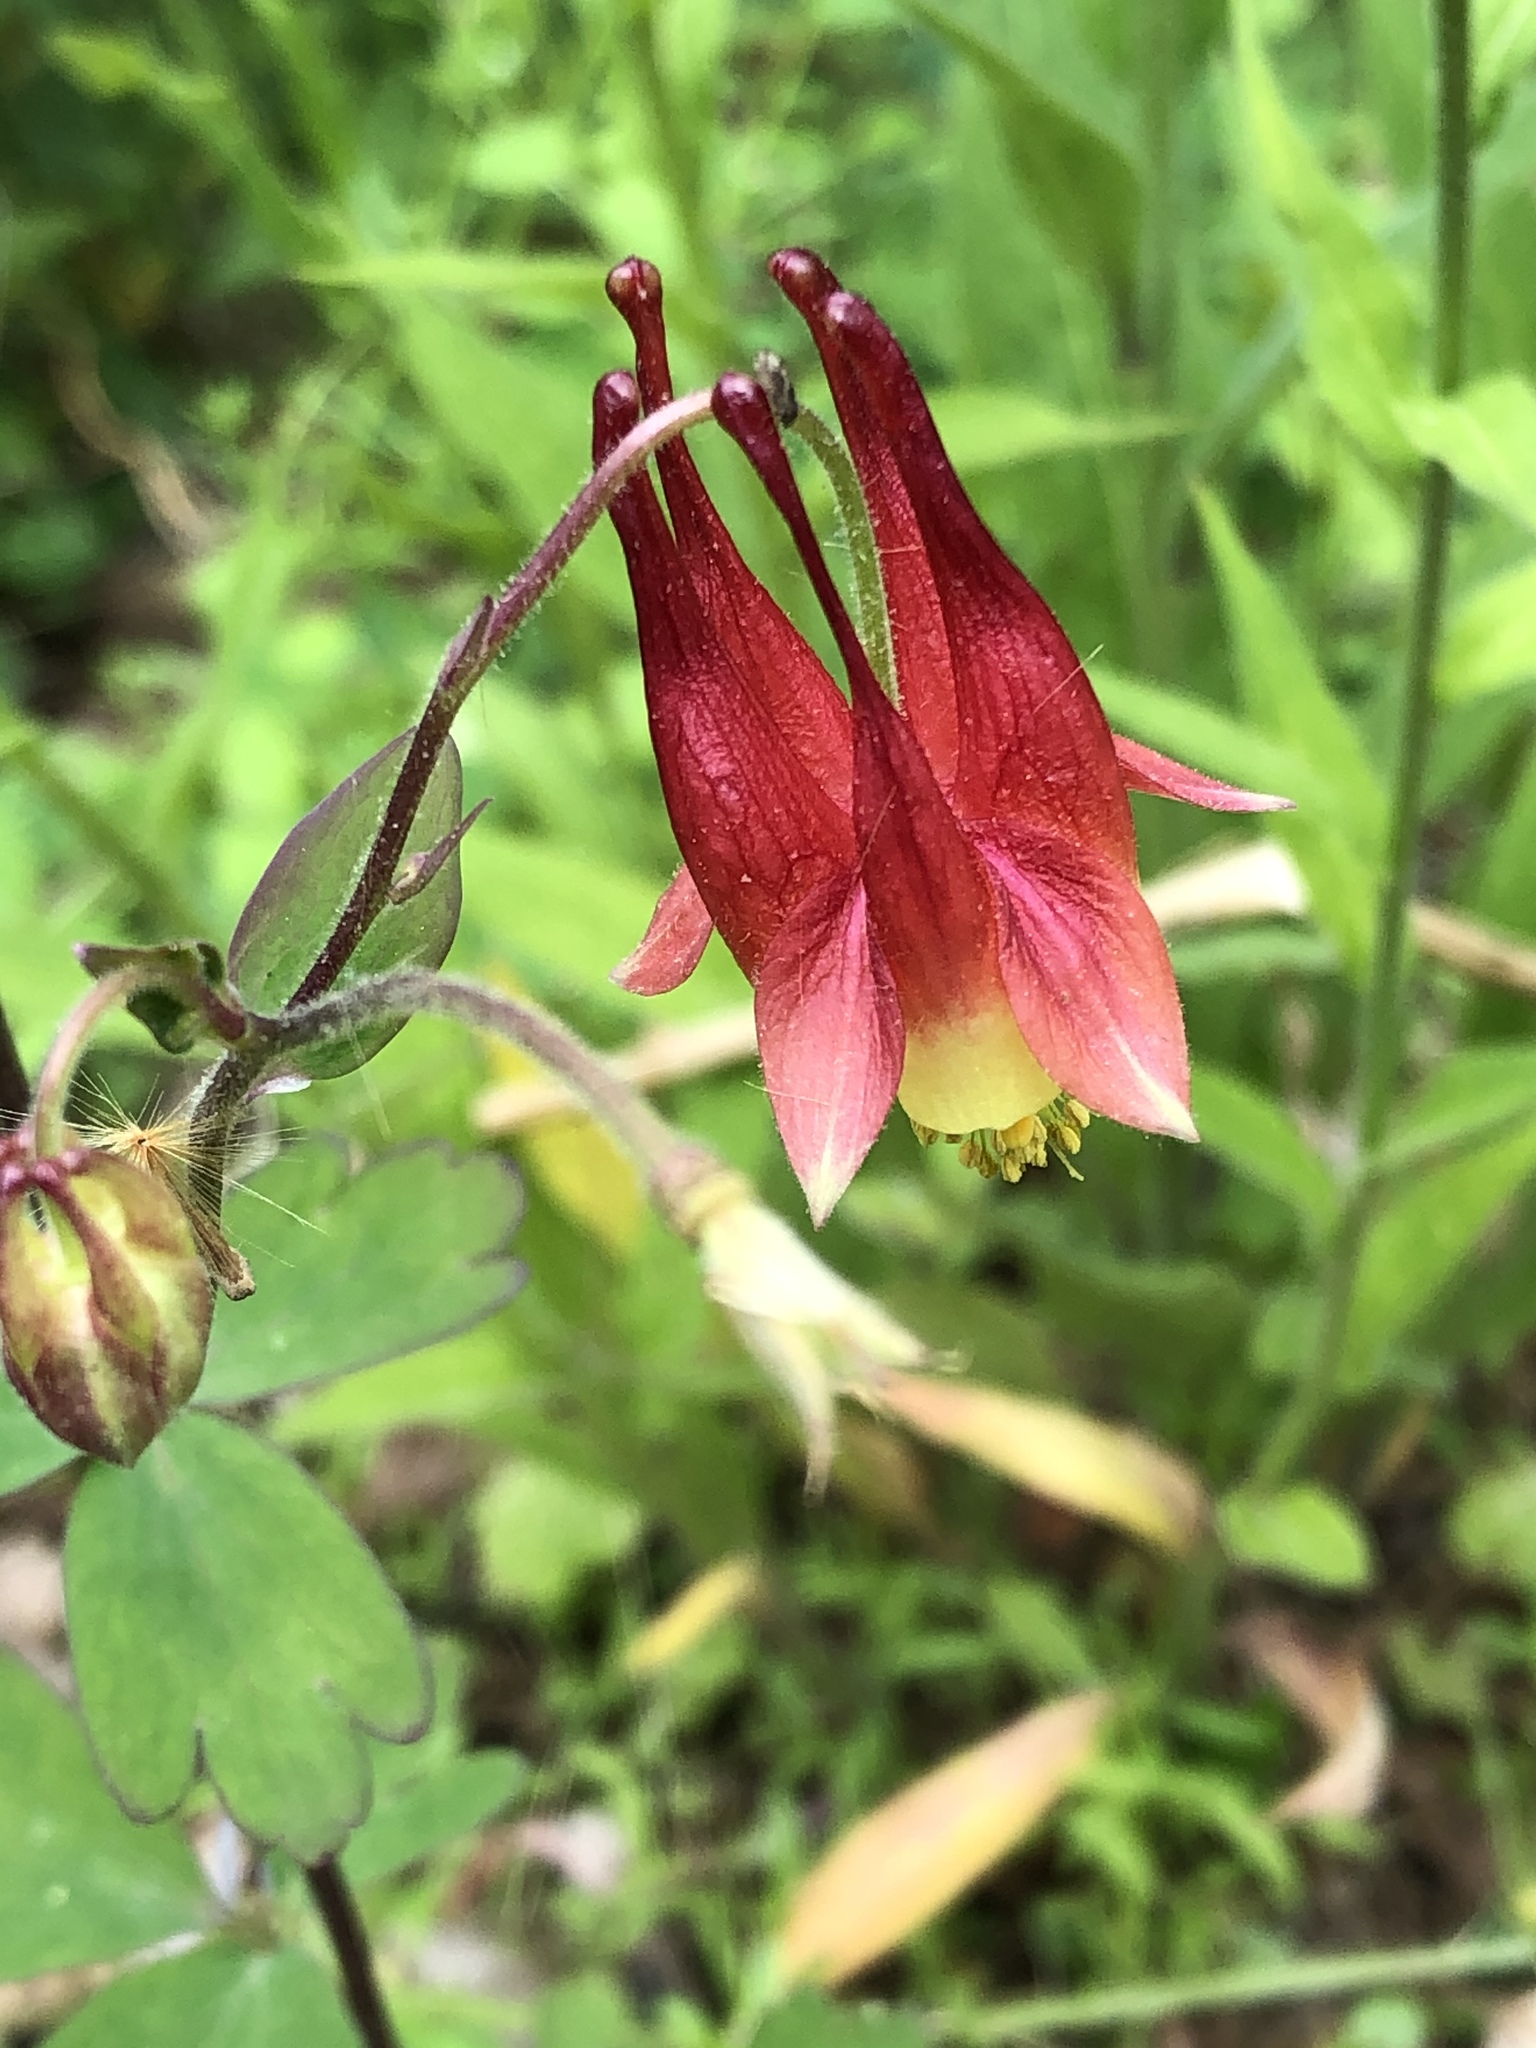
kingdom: Plantae
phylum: Tracheophyta
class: Magnoliopsida
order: Ranunculales
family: Ranunculaceae
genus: Aquilegia
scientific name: Aquilegia canadensis
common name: American columbine
